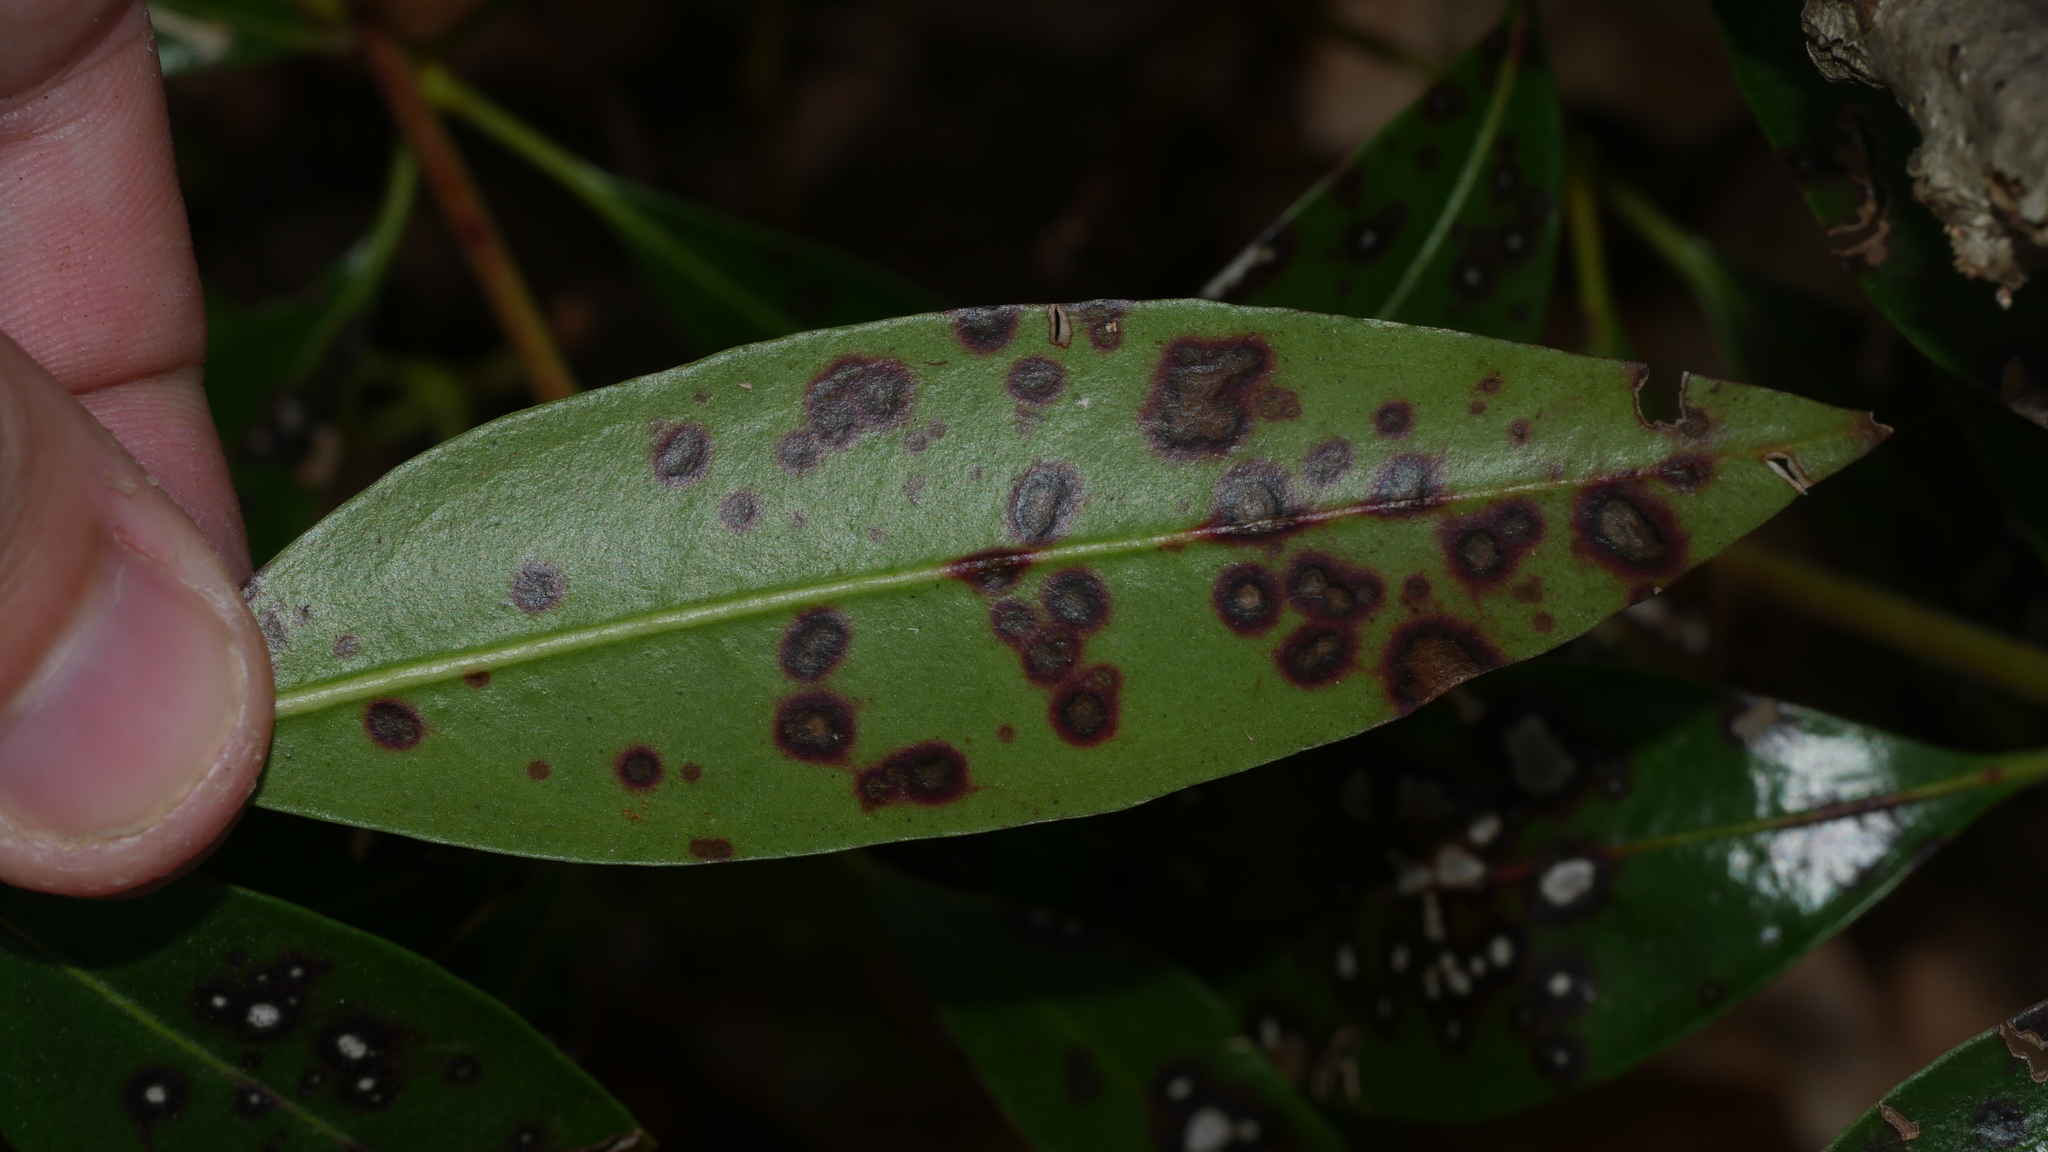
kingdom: Fungi
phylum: Ascomycota
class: Dothideomycetes
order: Mycosphaerellales
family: Mycosphaerellaceae
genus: Mycosphaerella
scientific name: Mycosphaerella colorata
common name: Mountain laurel leaf spot
